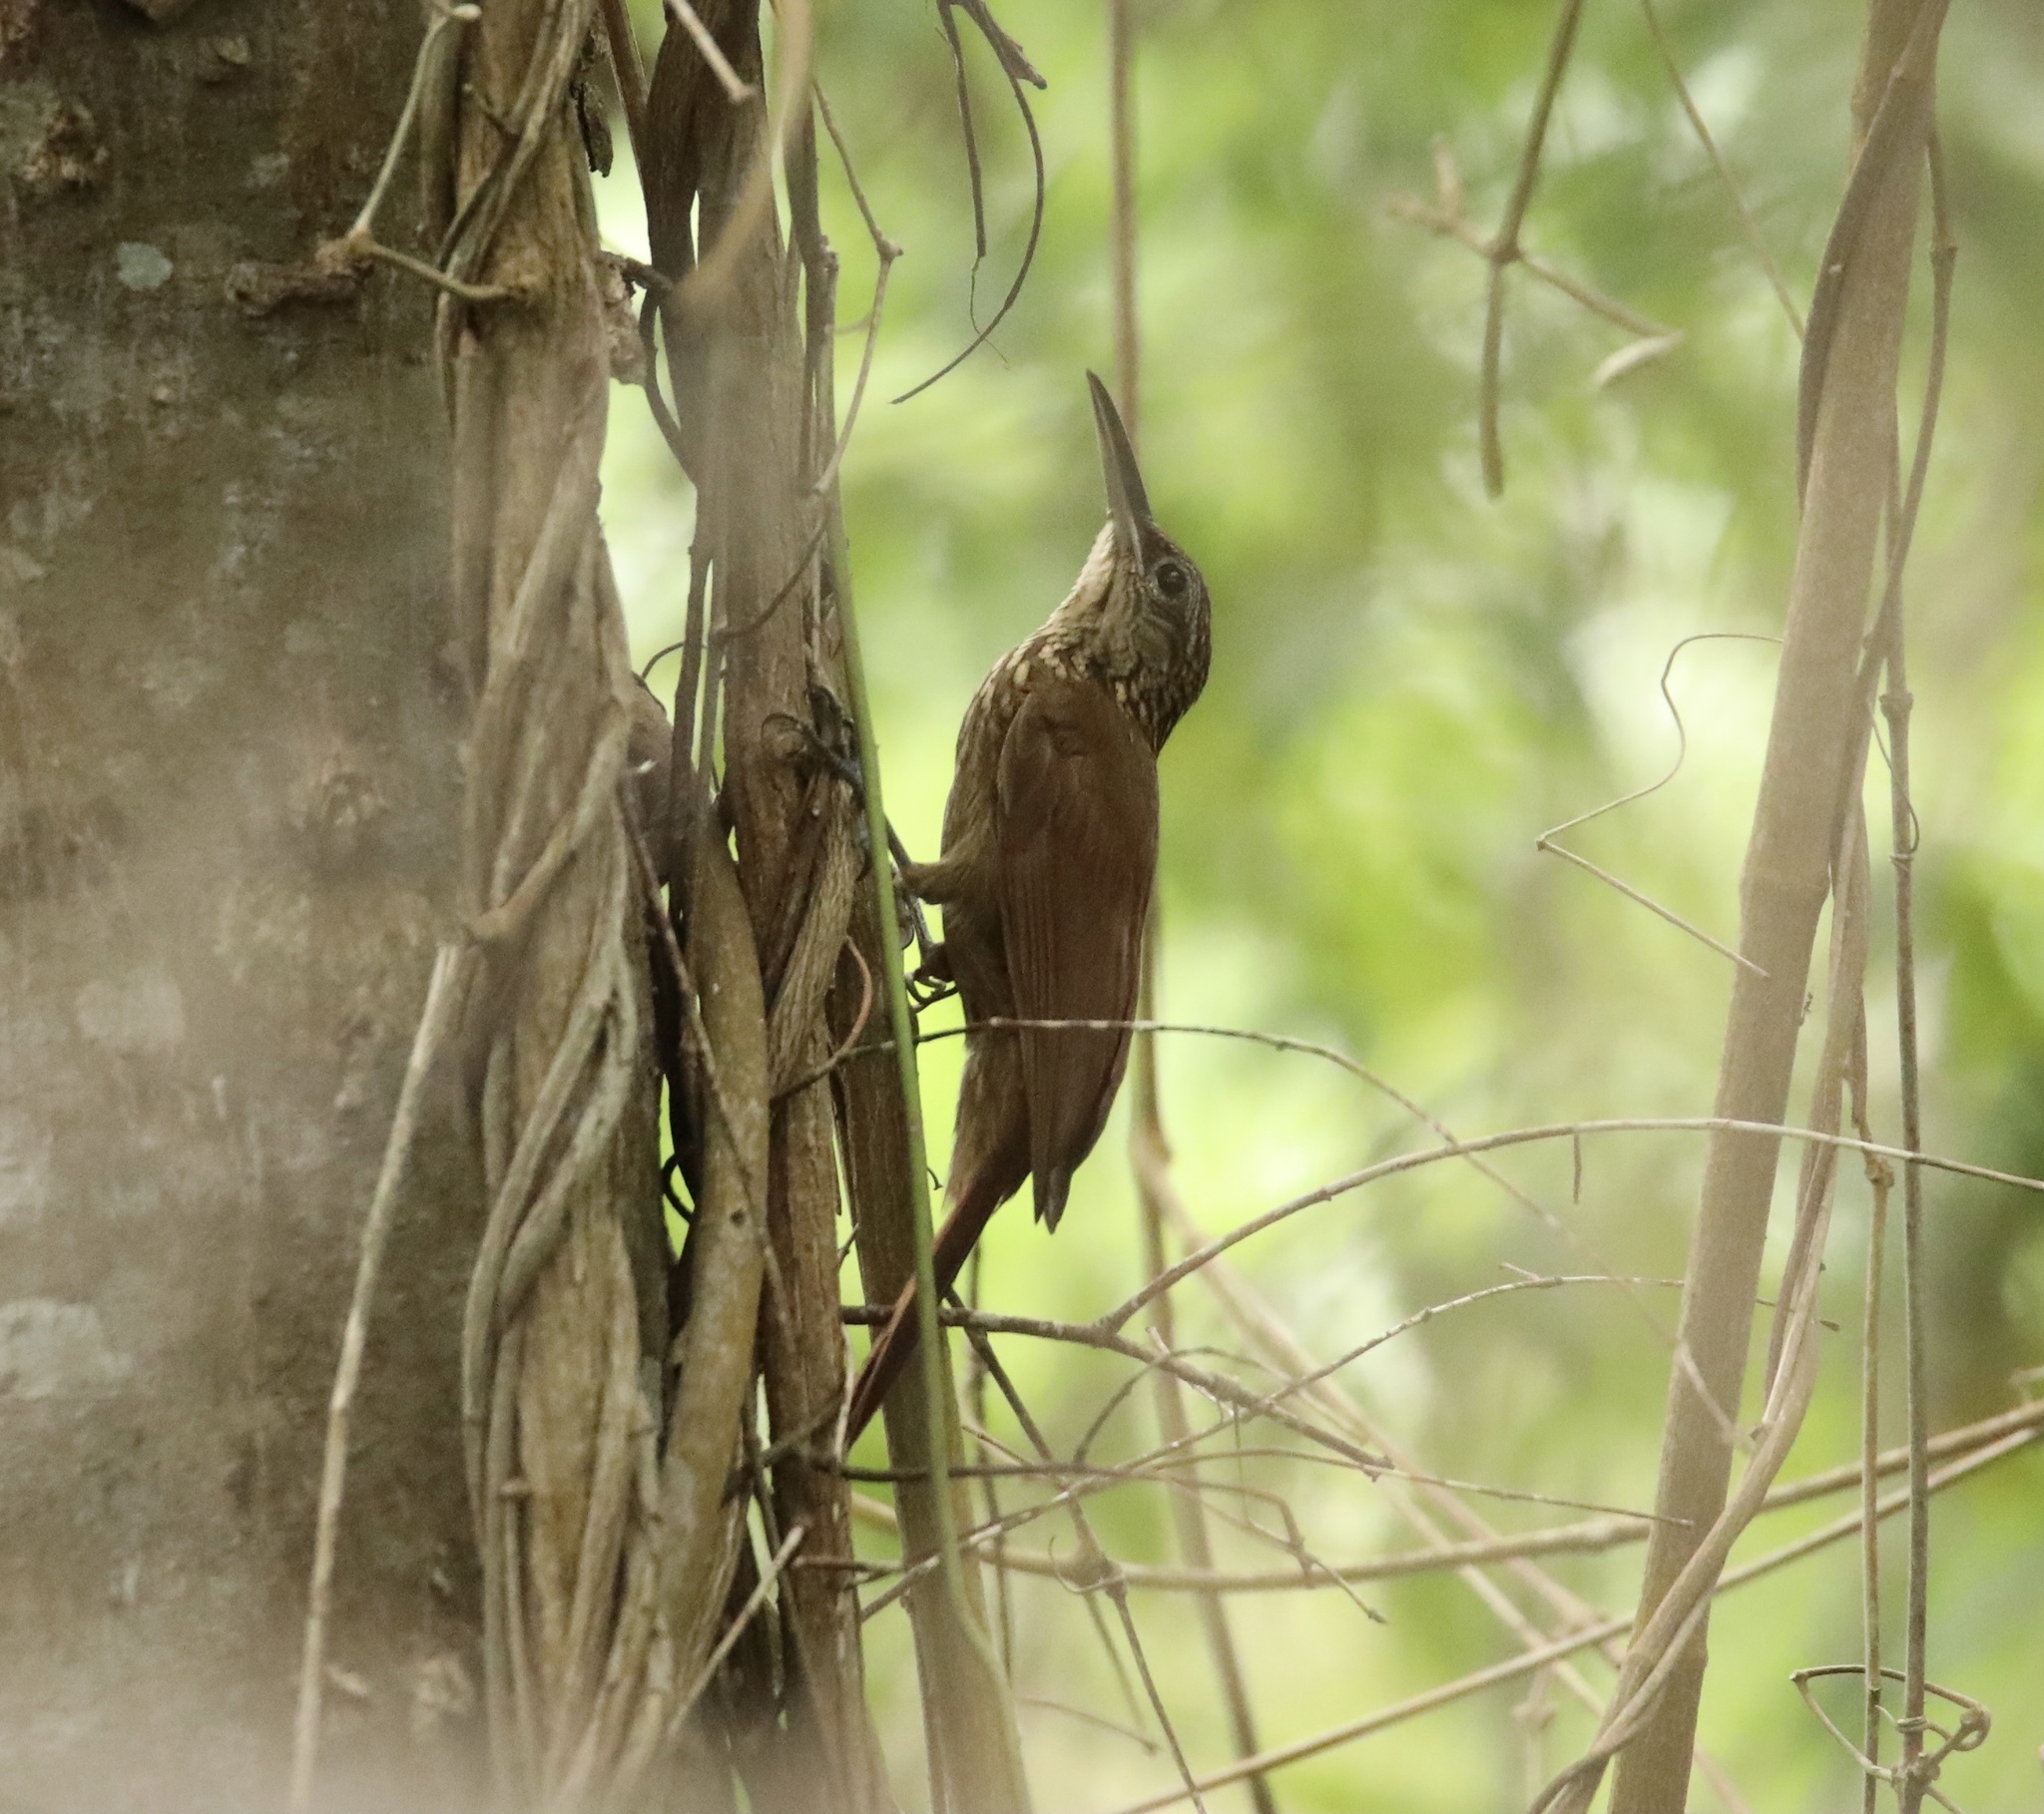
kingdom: Animalia
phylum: Chordata
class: Aves
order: Passeriformes
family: Furnariidae
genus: Xiphorhynchus
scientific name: Xiphorhynchus susurrans
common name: Cocoa woodcreeper
